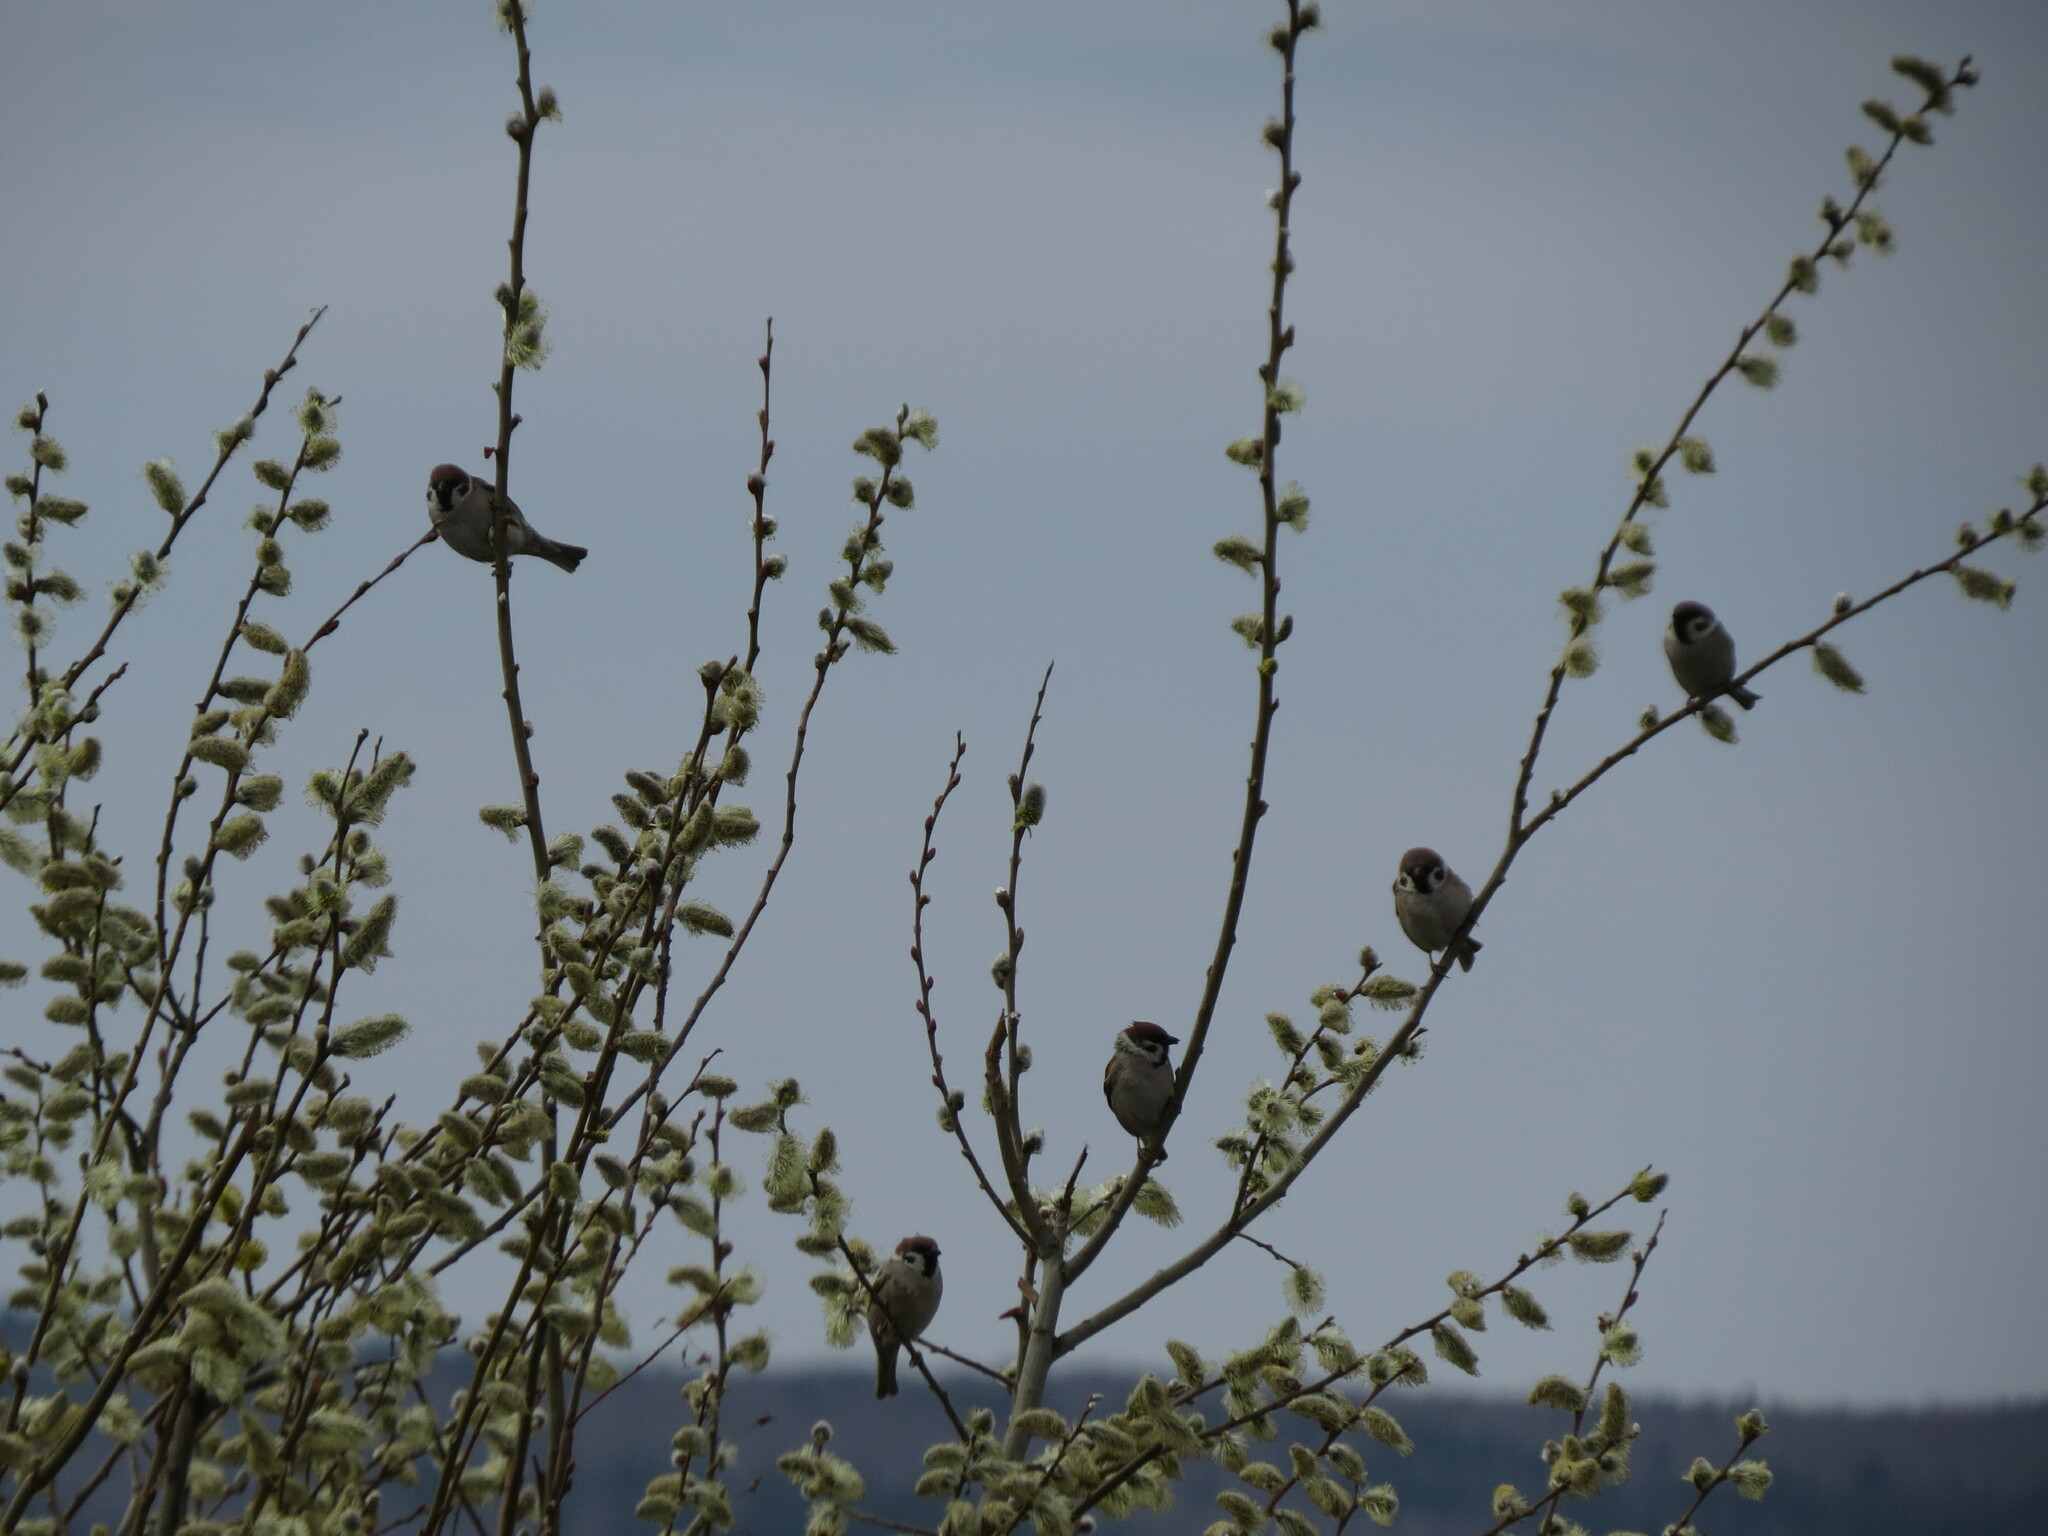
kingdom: Animalia
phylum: Chordata
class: Aves
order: Passeriformes
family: Passeridae
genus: Passer
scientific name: Passer montanus
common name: Eurasian tree sparrow
